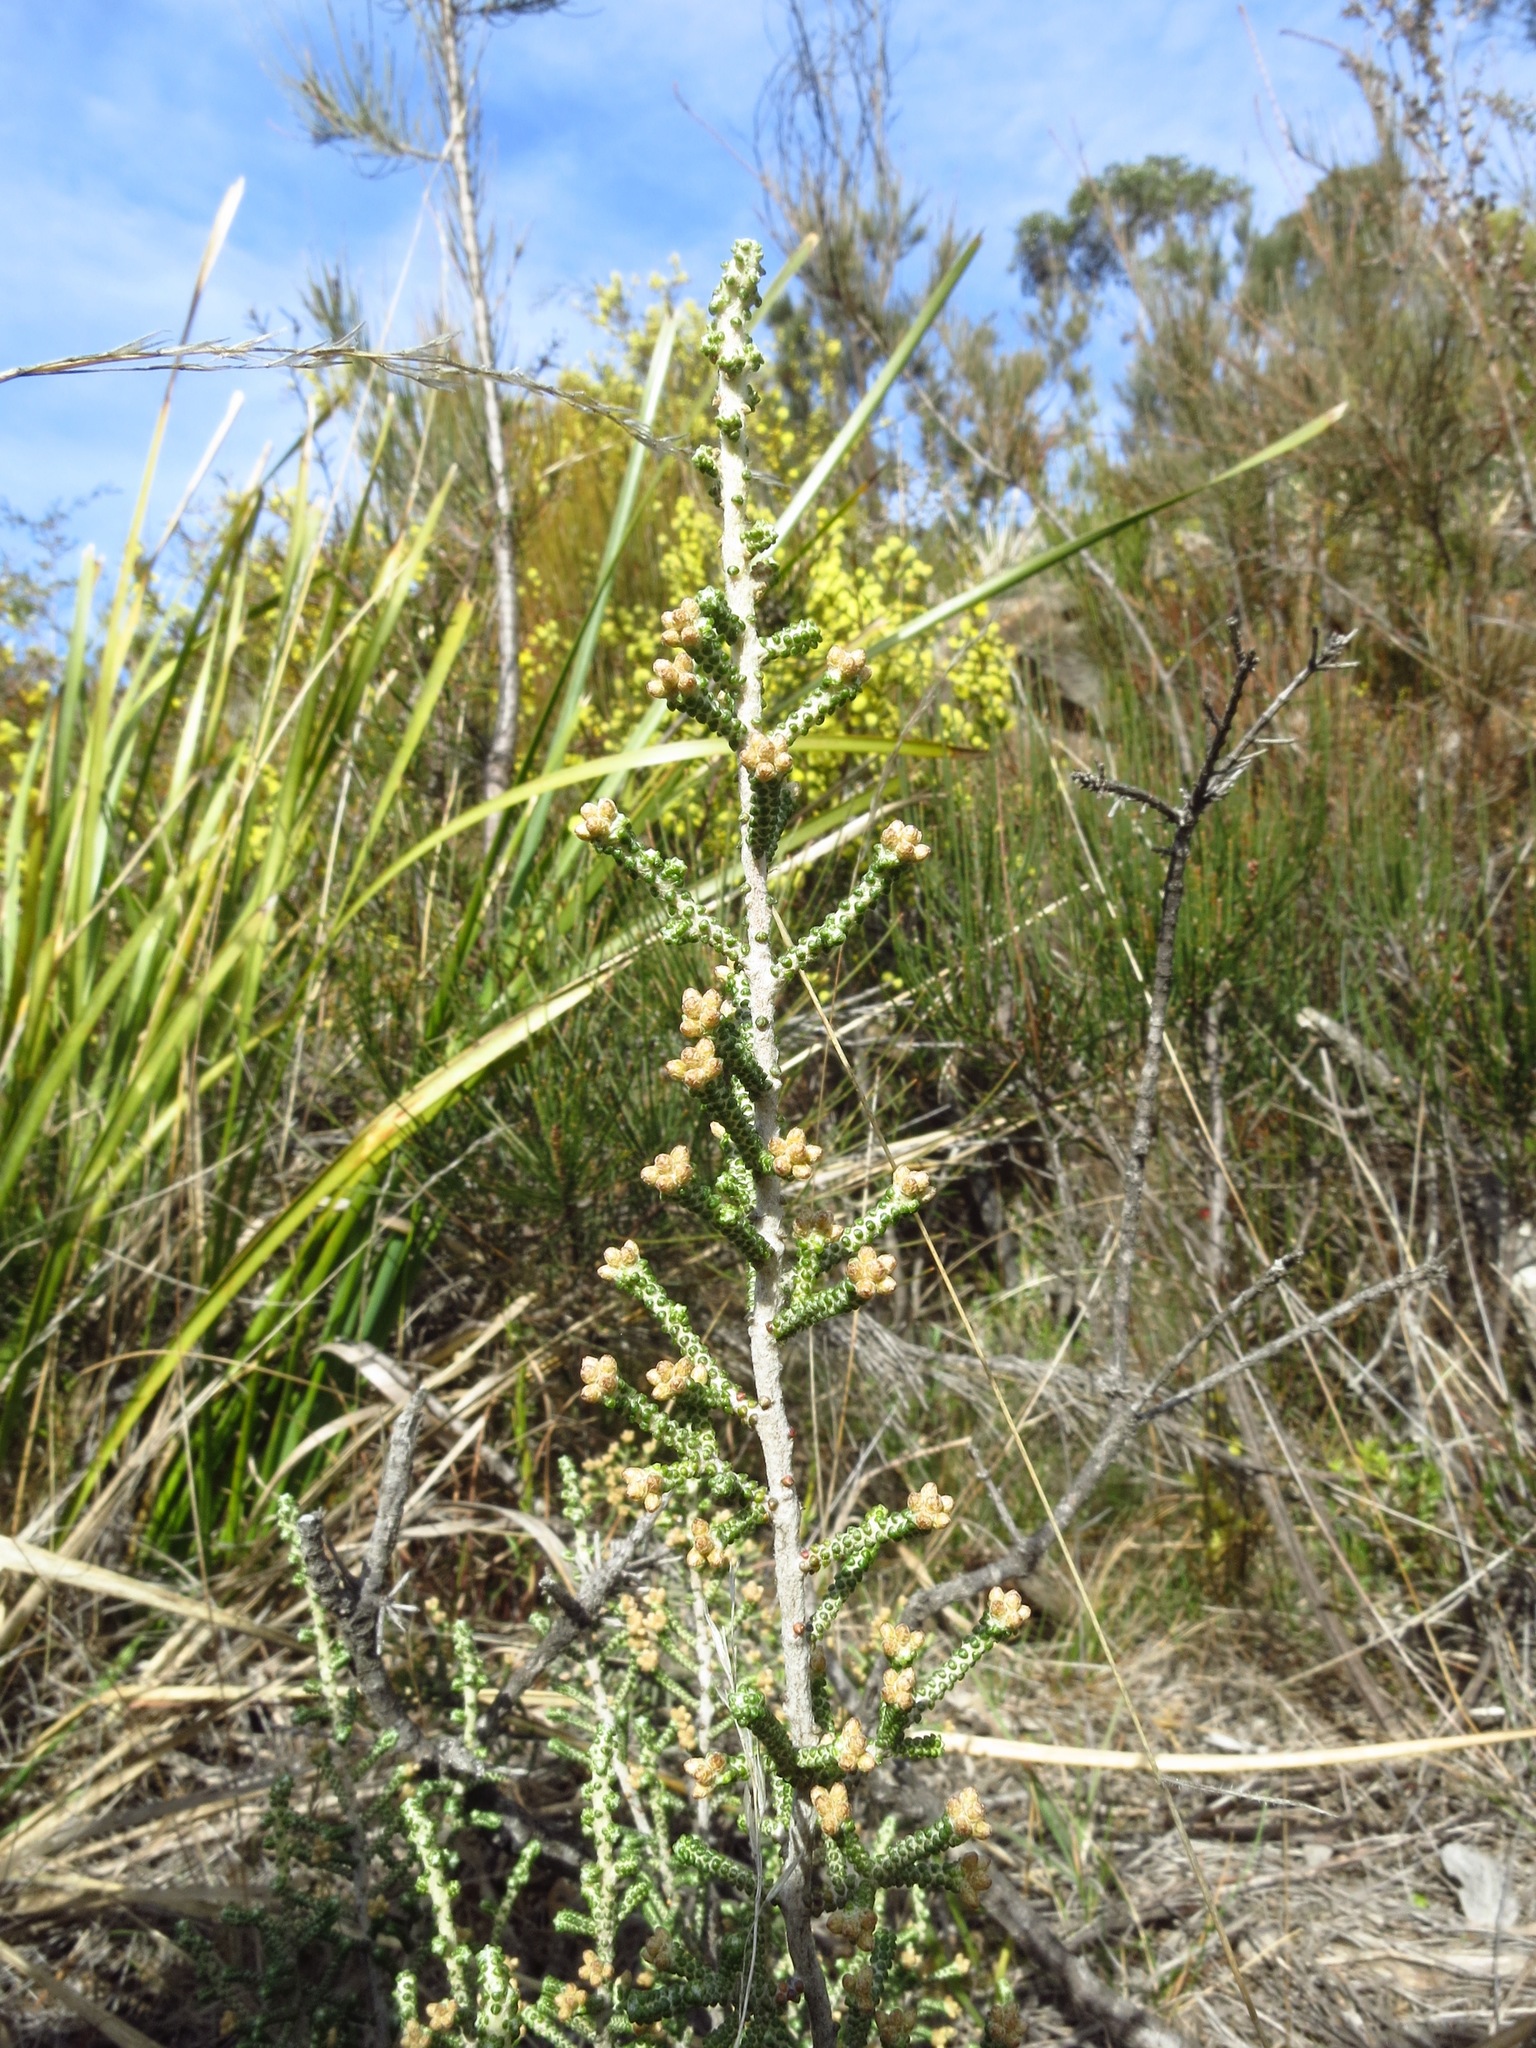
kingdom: Plantae
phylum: Tracheophyta
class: Magnoliopsida
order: Asterales
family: Asteraceae
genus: Ozothamnus
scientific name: Ozothamnus scutellifolius
